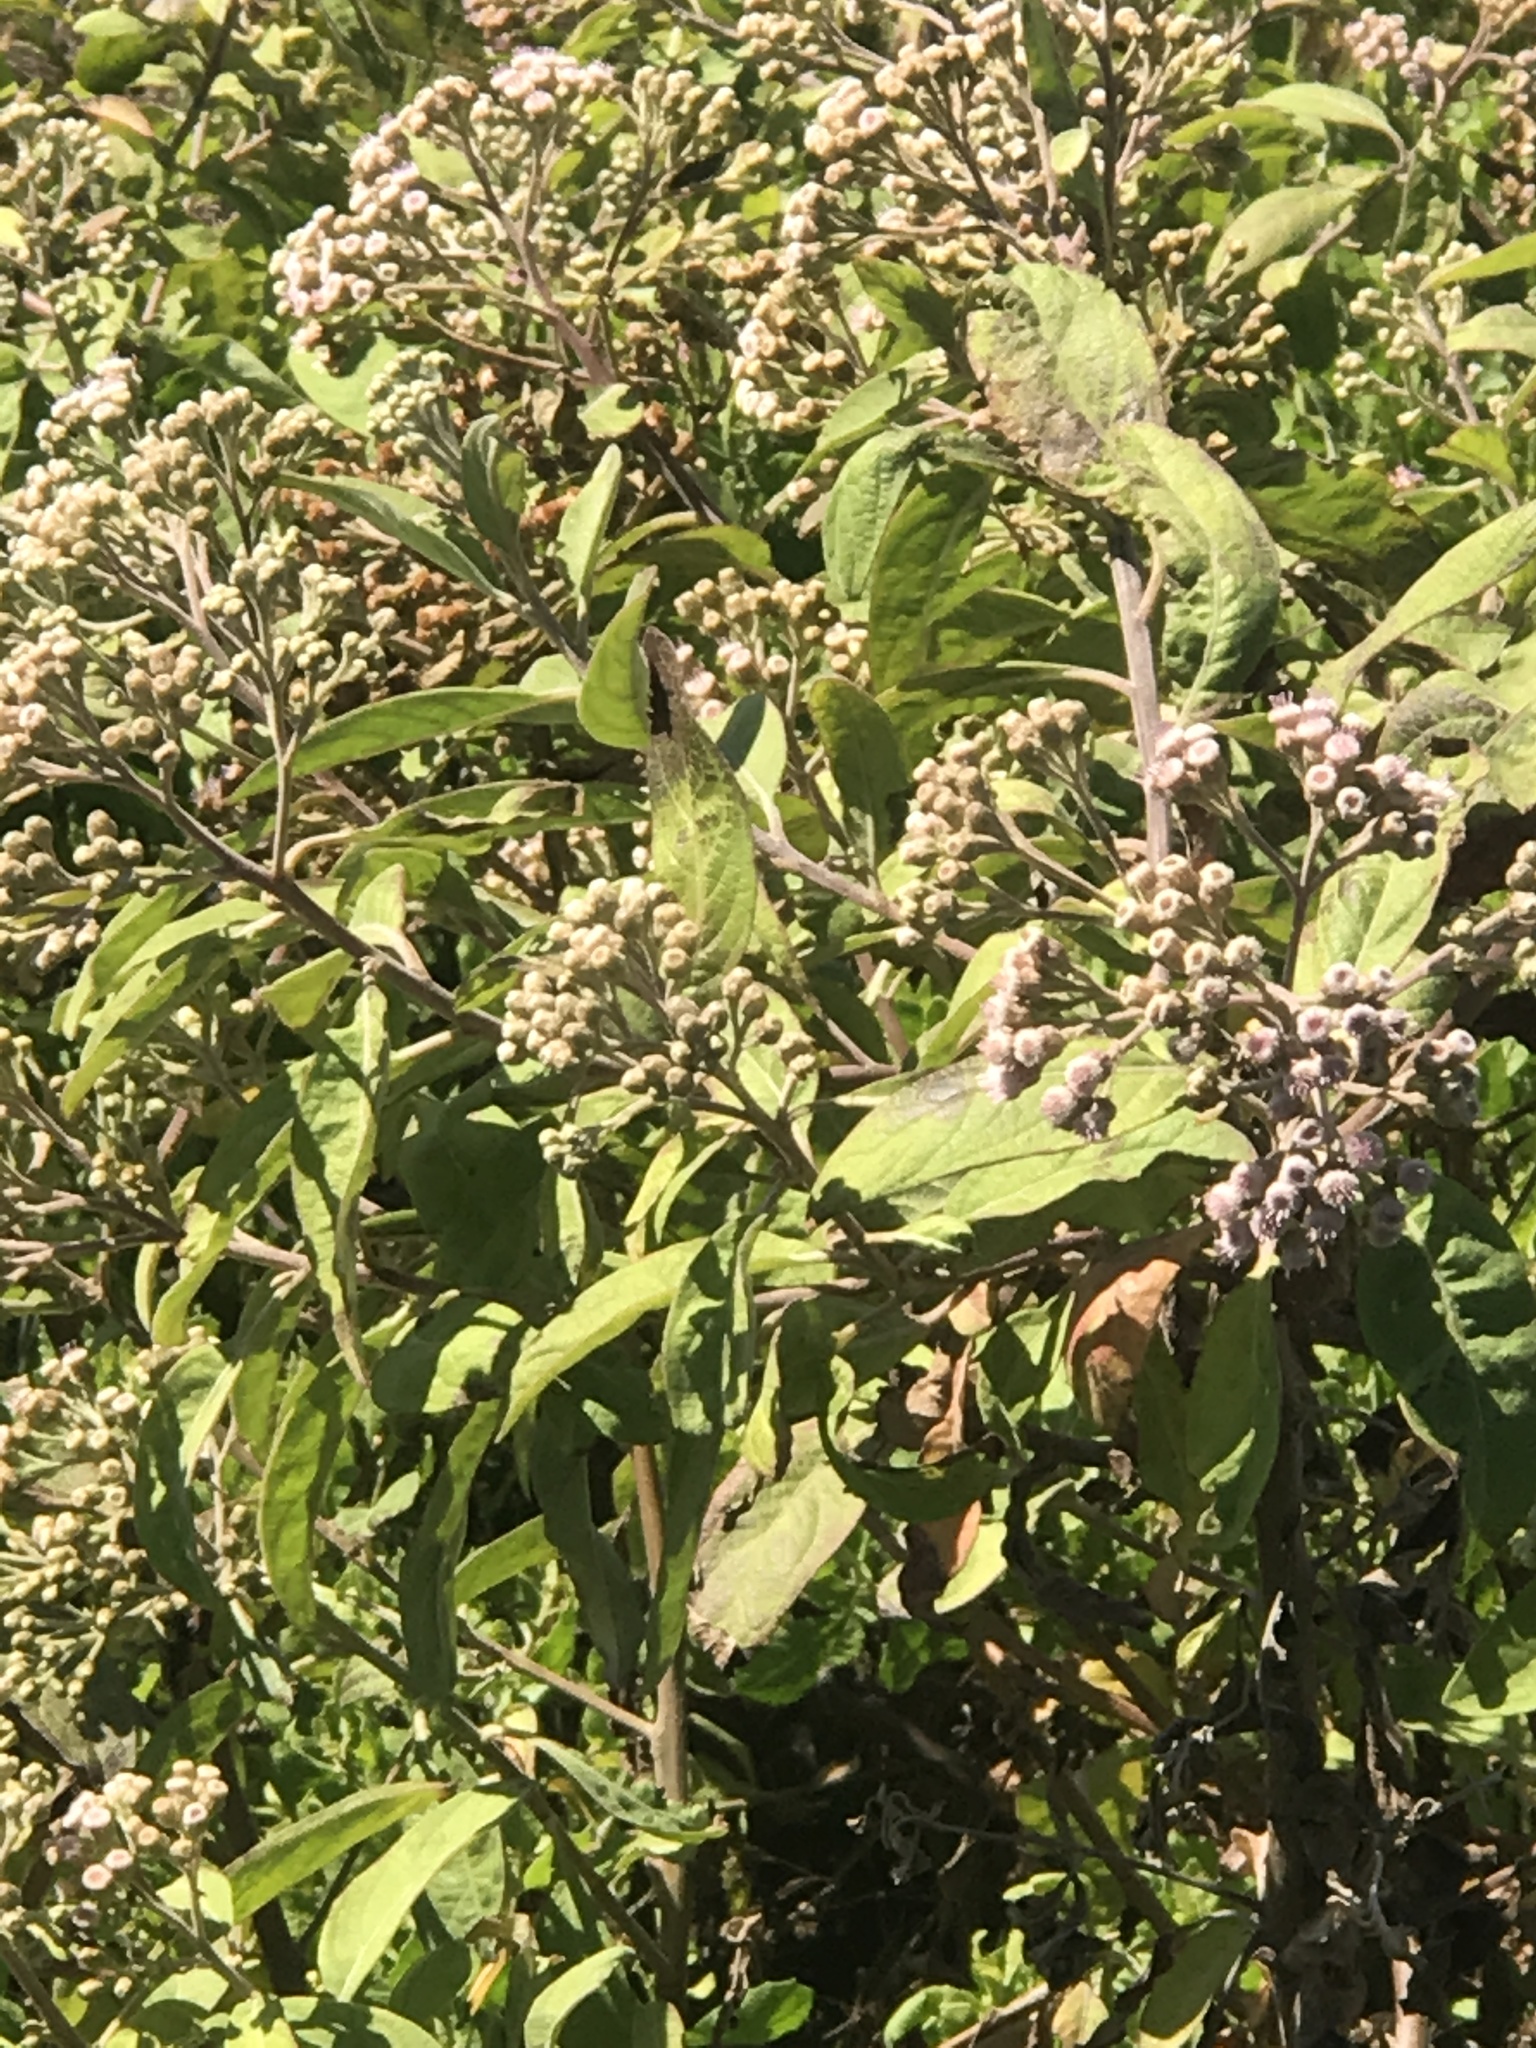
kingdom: Plantae
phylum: Tracheophyta
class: Magnoliopsida
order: Asterales
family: Asteraceae
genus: Pluchea
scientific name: Pluchea carolinensis
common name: Marsh fleabane
